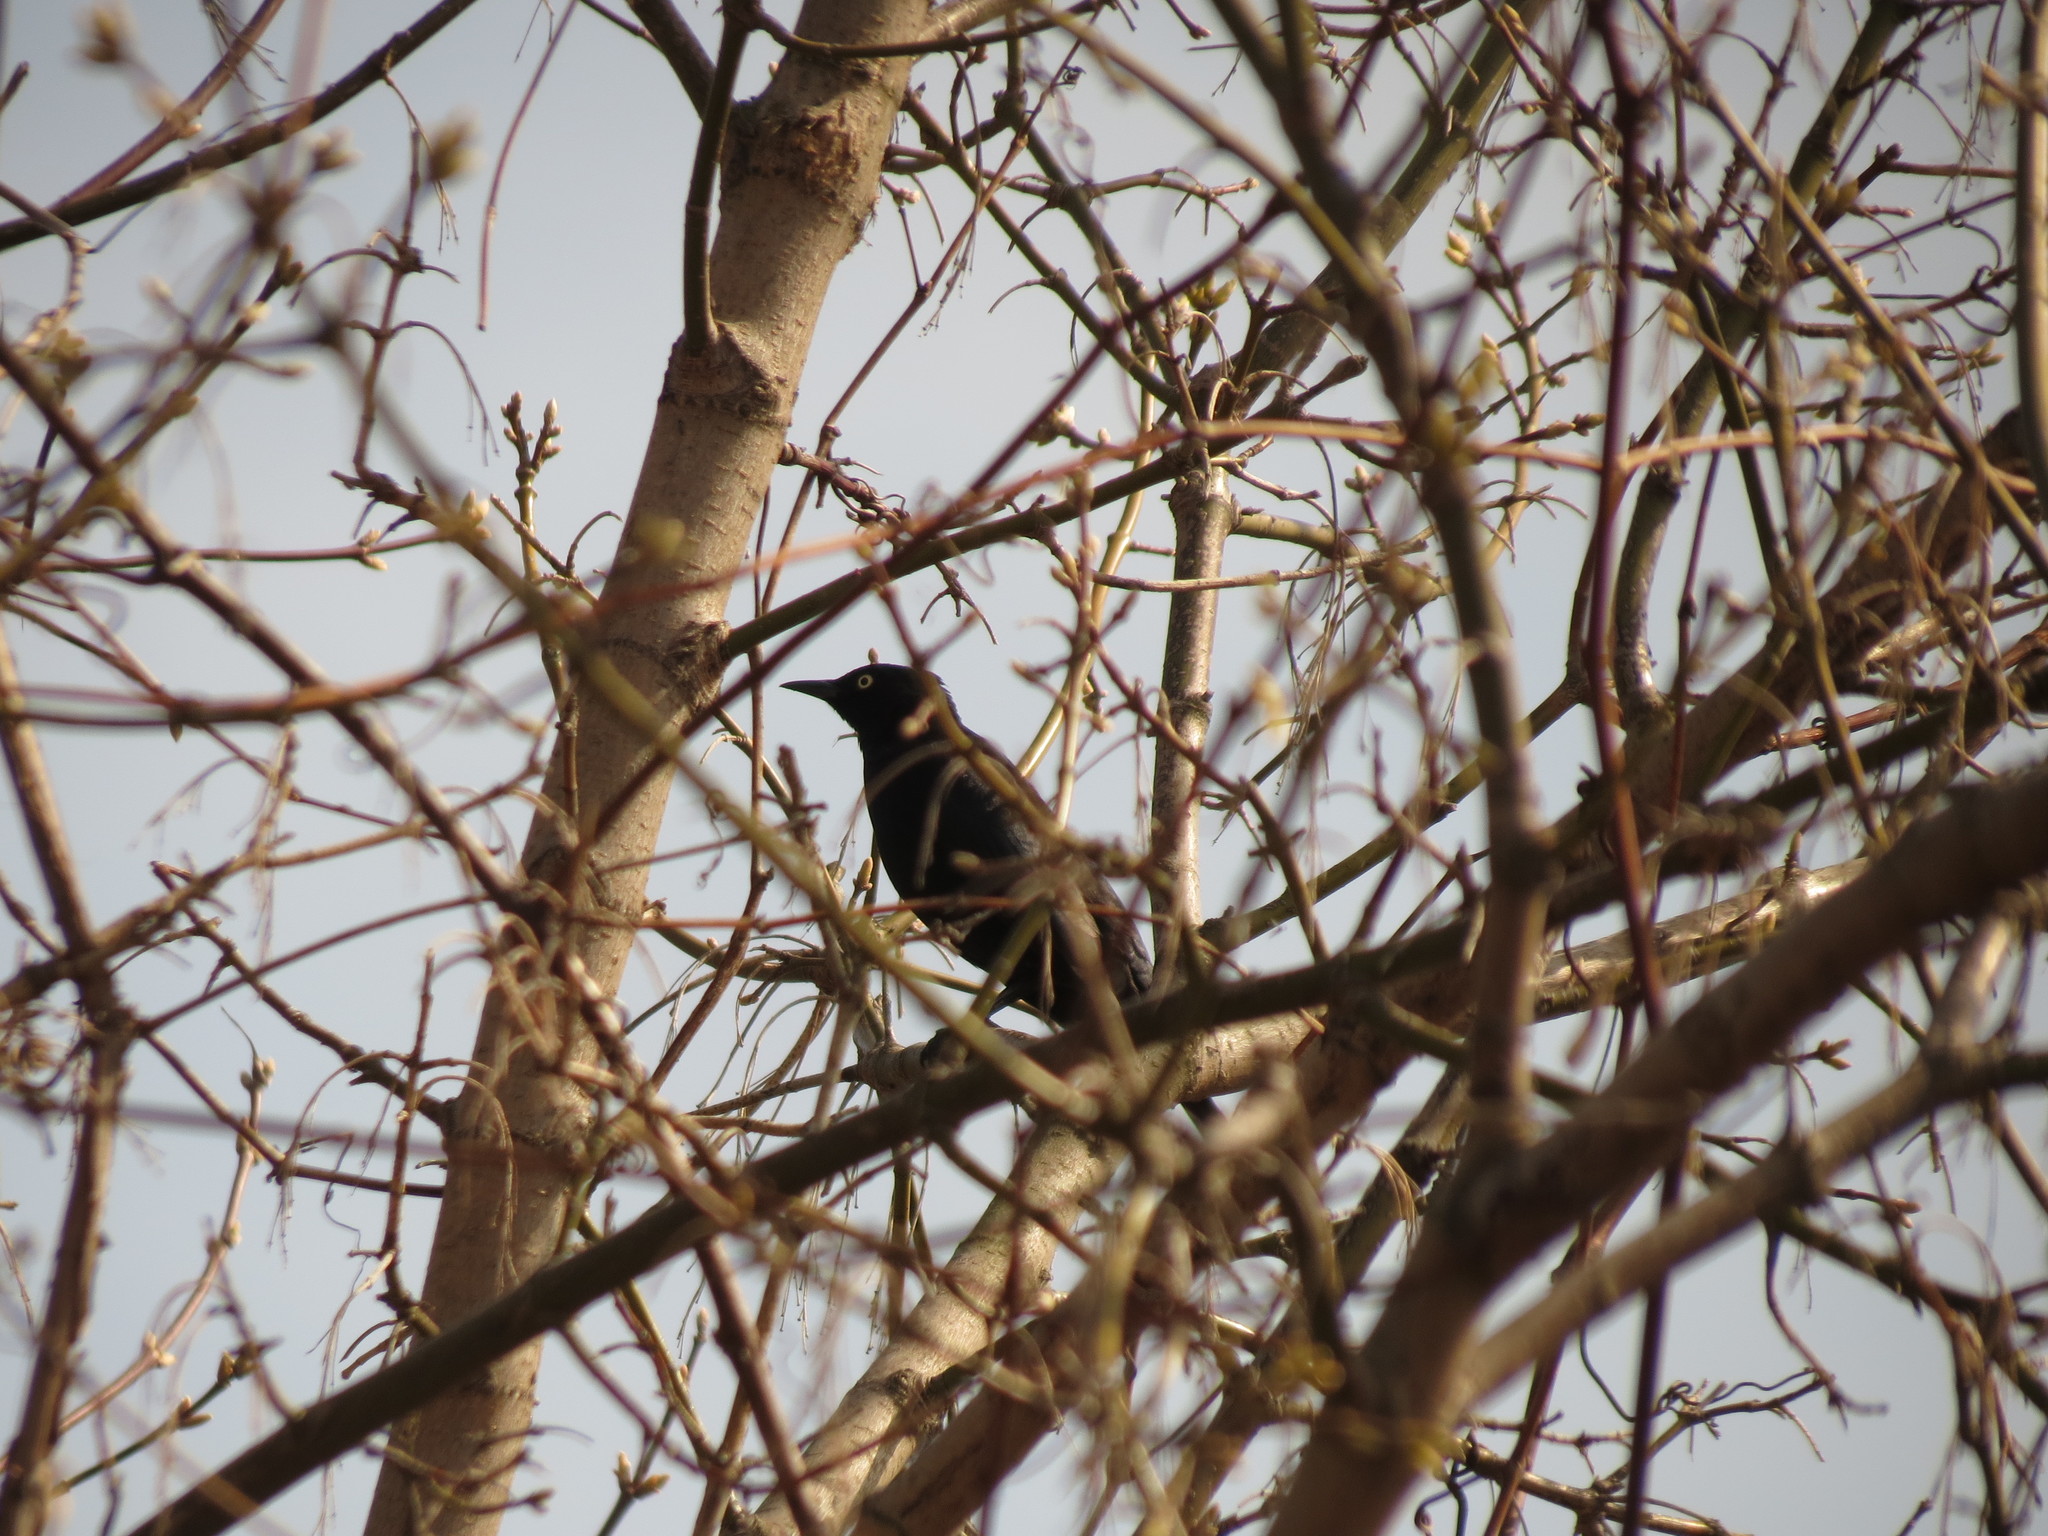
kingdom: Animalia
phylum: Chordata
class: Aves
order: Passeriformes
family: Icteridae
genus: Euphagus
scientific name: Euphagus carolinus
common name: Rusty blackbird
